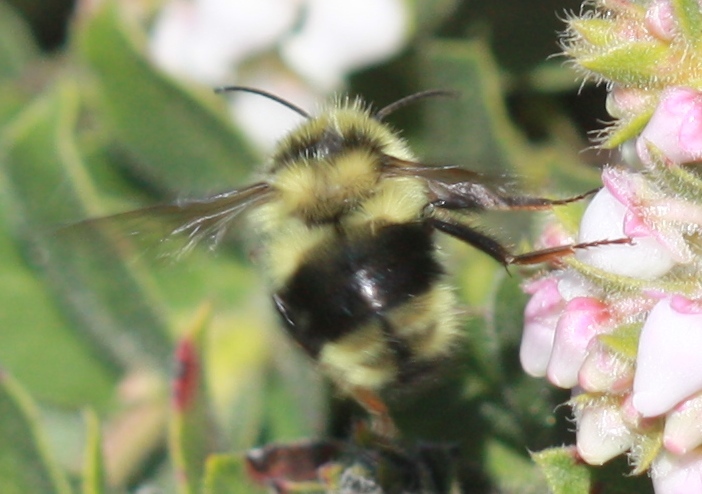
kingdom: Animalia
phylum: Arthropoda
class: Insecta
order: Hymenoptera
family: Apidae
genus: Bombus
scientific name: Bombus melanopygus
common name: Black tail bumble bee
